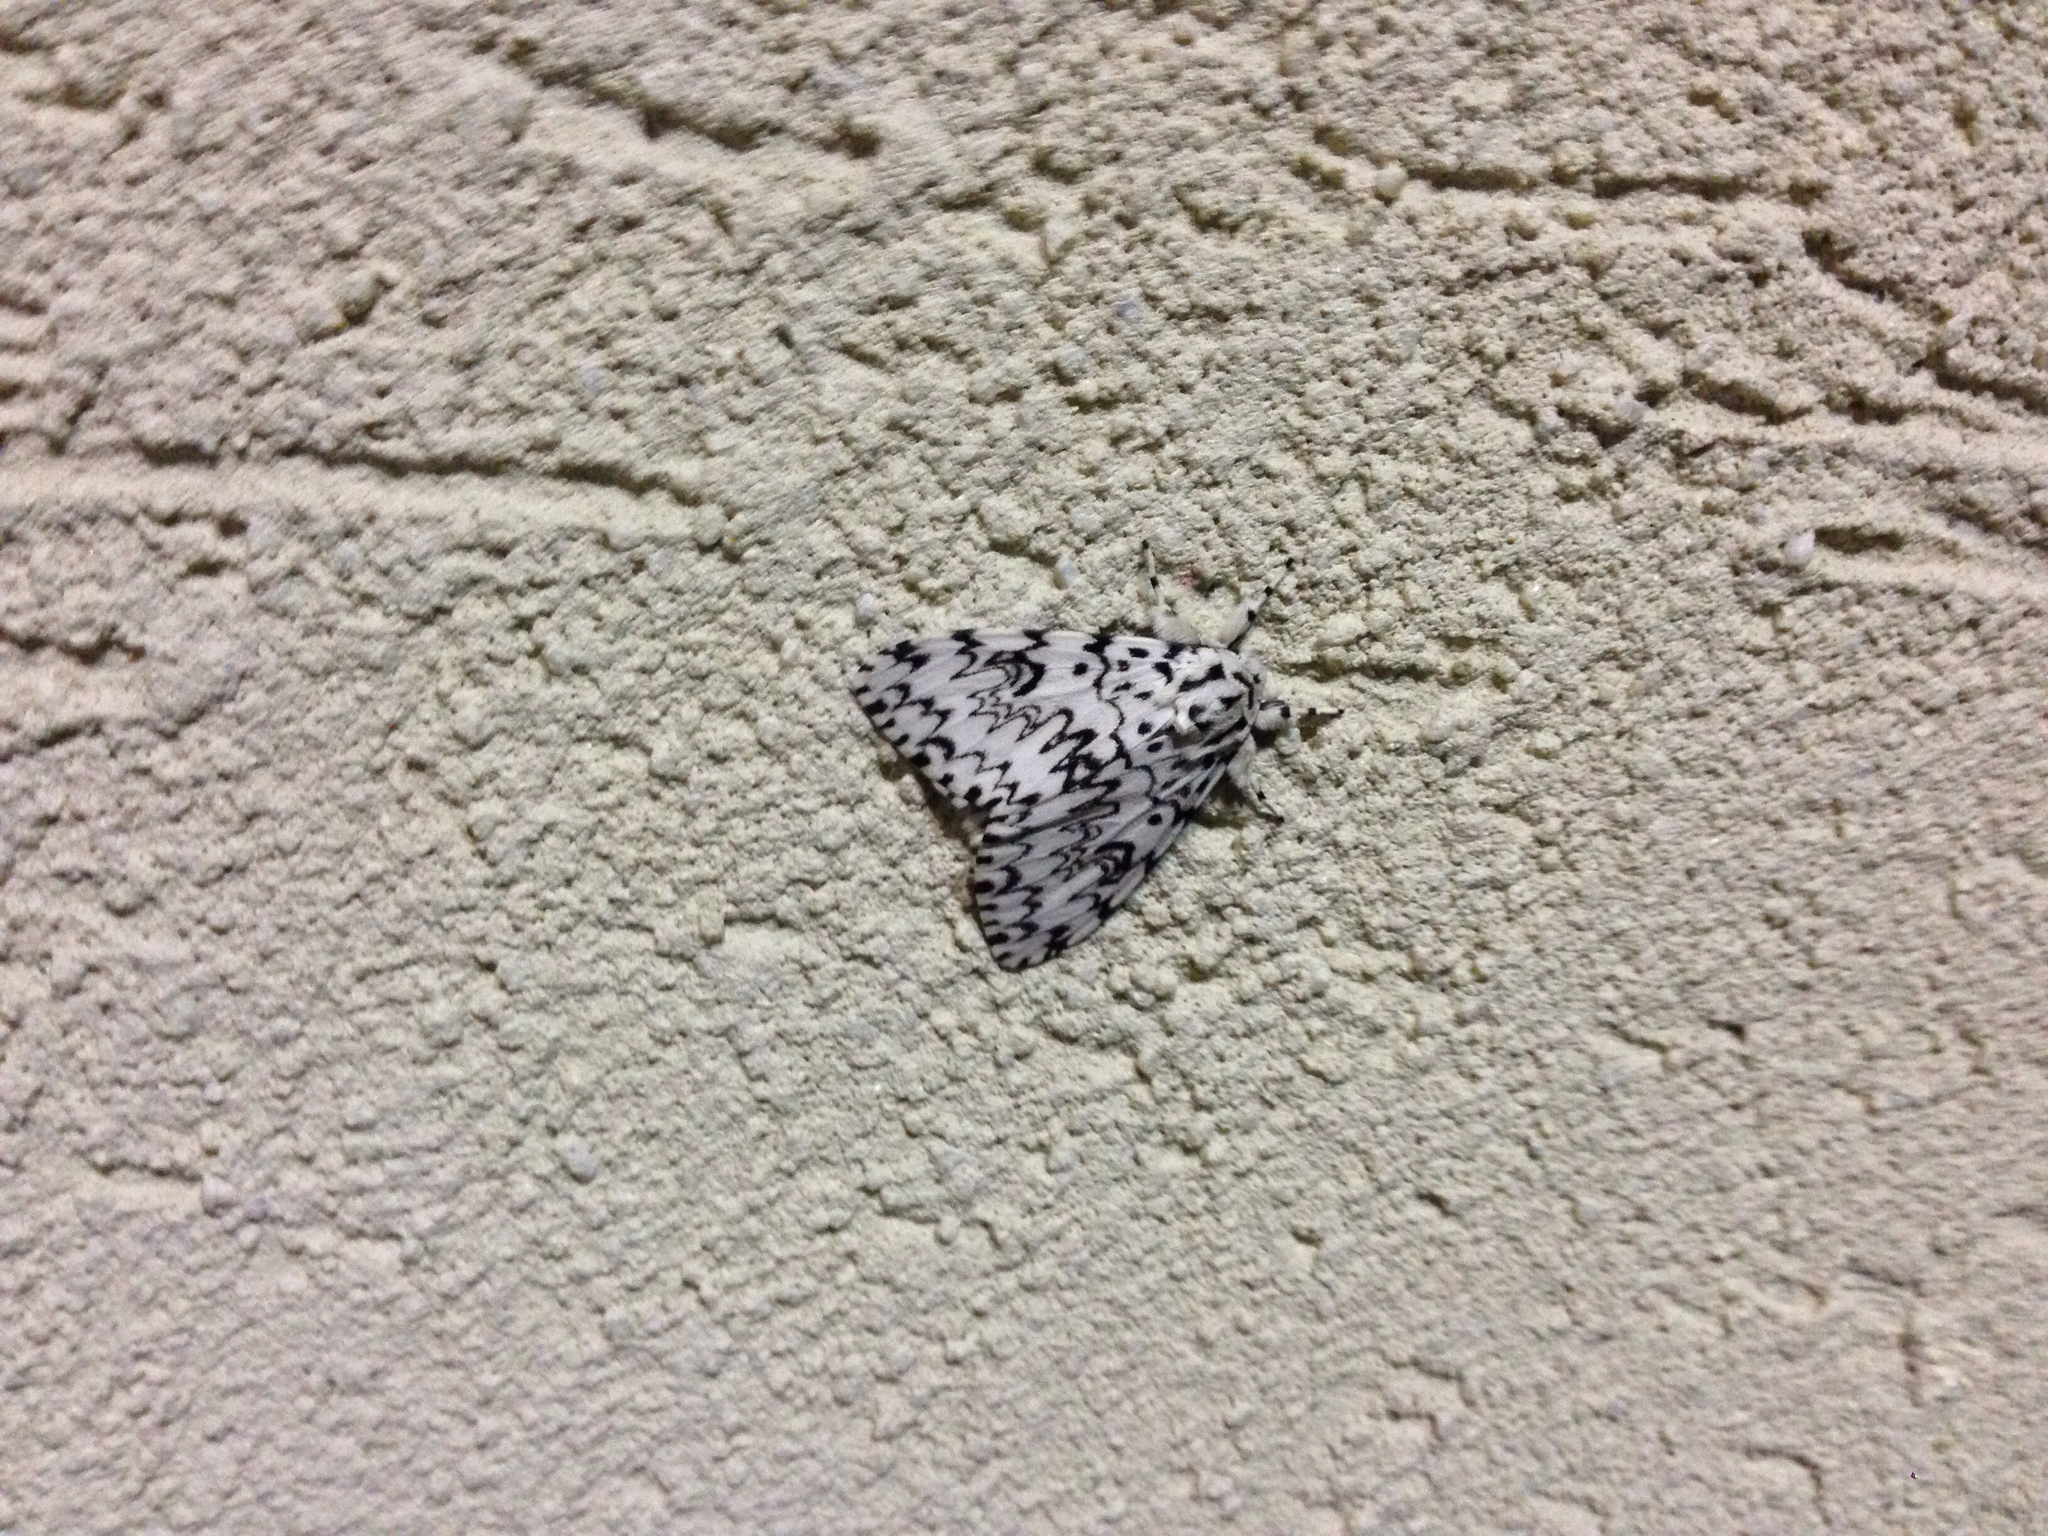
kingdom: Animalia
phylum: Arthropoda
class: Insecta
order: Lepidoptera
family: Erebidae
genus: Lymantria
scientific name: Lymantria monacha
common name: Black arches
